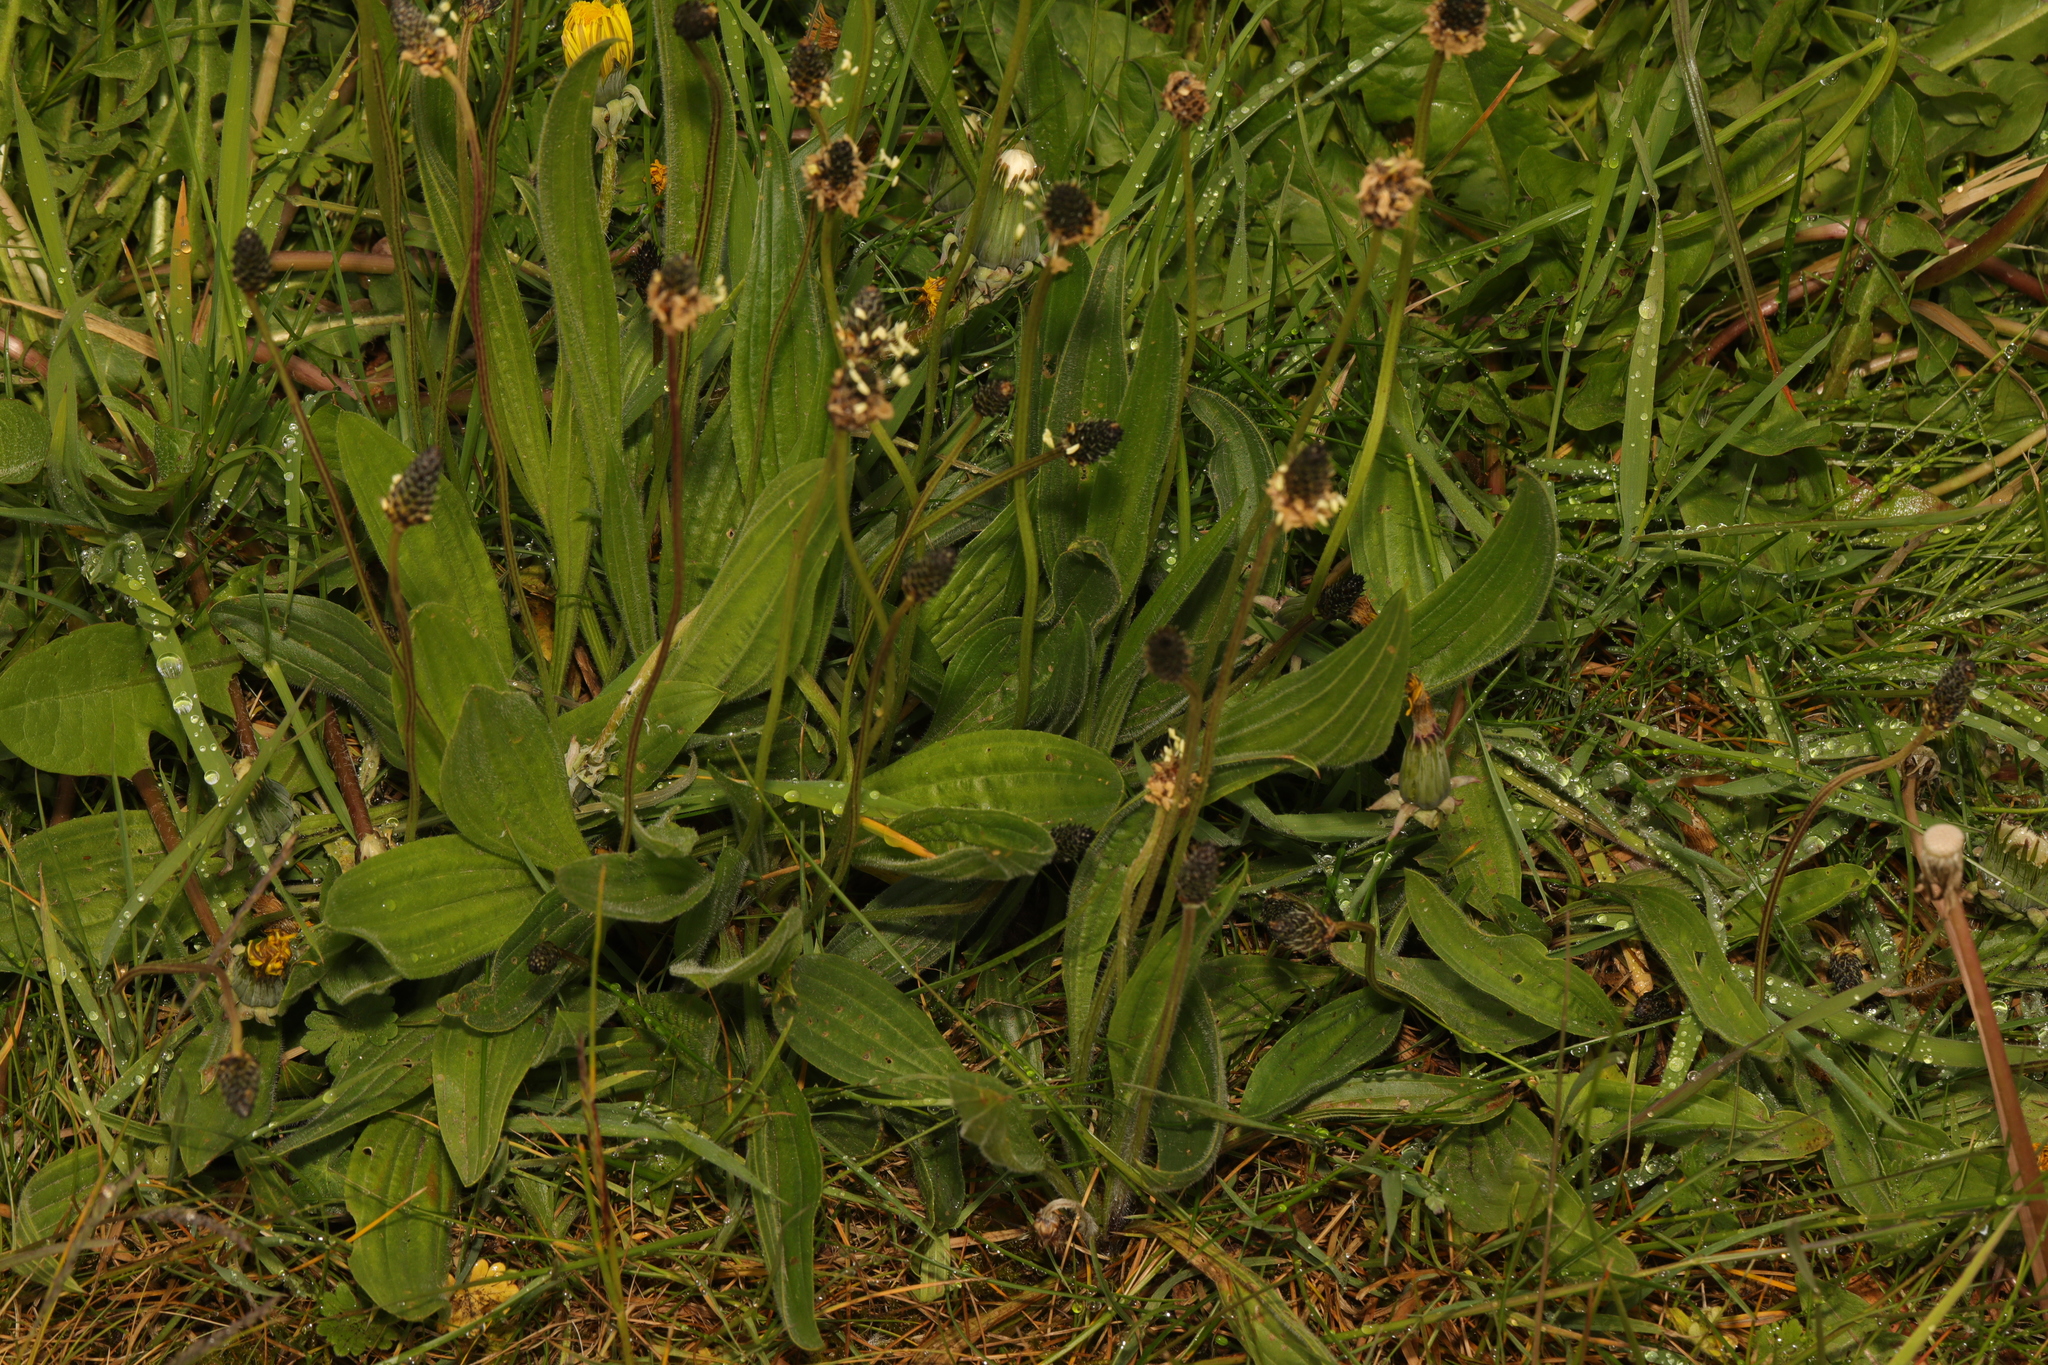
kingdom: Plantae
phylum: Tracheophyta
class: Magnoliopsida
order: Lamiales
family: Plantaginaceae
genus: Plantago
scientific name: Plantago lanceolata
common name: Ribwort plantain
